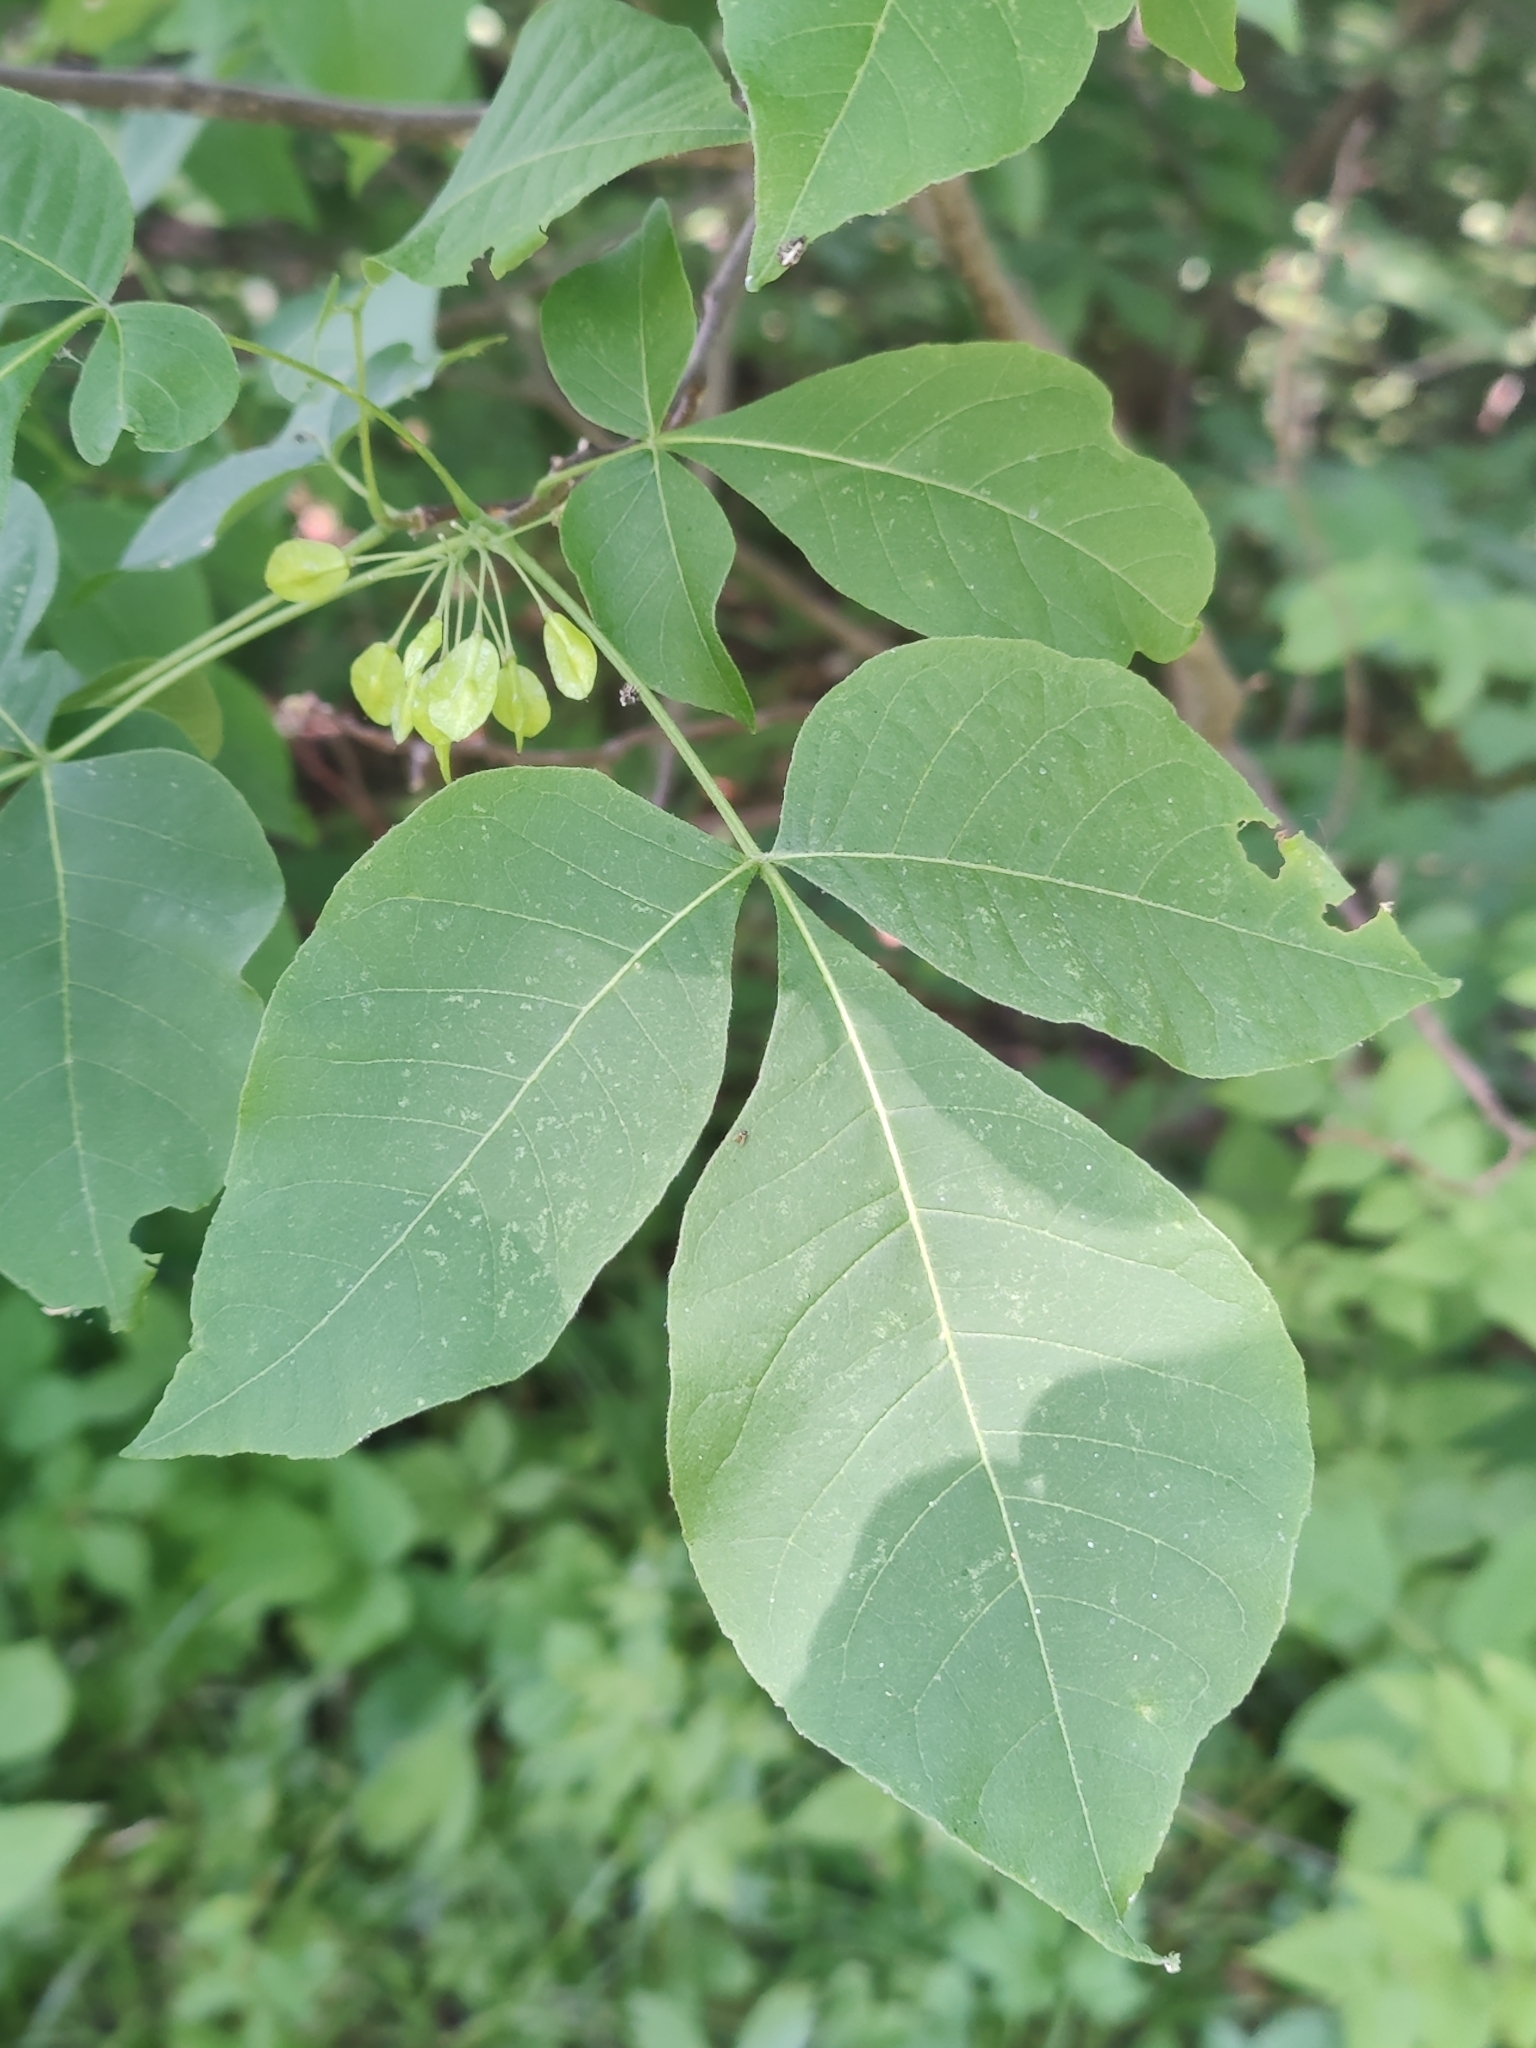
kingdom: Plantae
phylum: Tracheophyta
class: Magnoliopsida
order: Sapindales
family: Rutaceae
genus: Ptelea
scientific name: Ptelea trifoliata
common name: Common hop-tree
